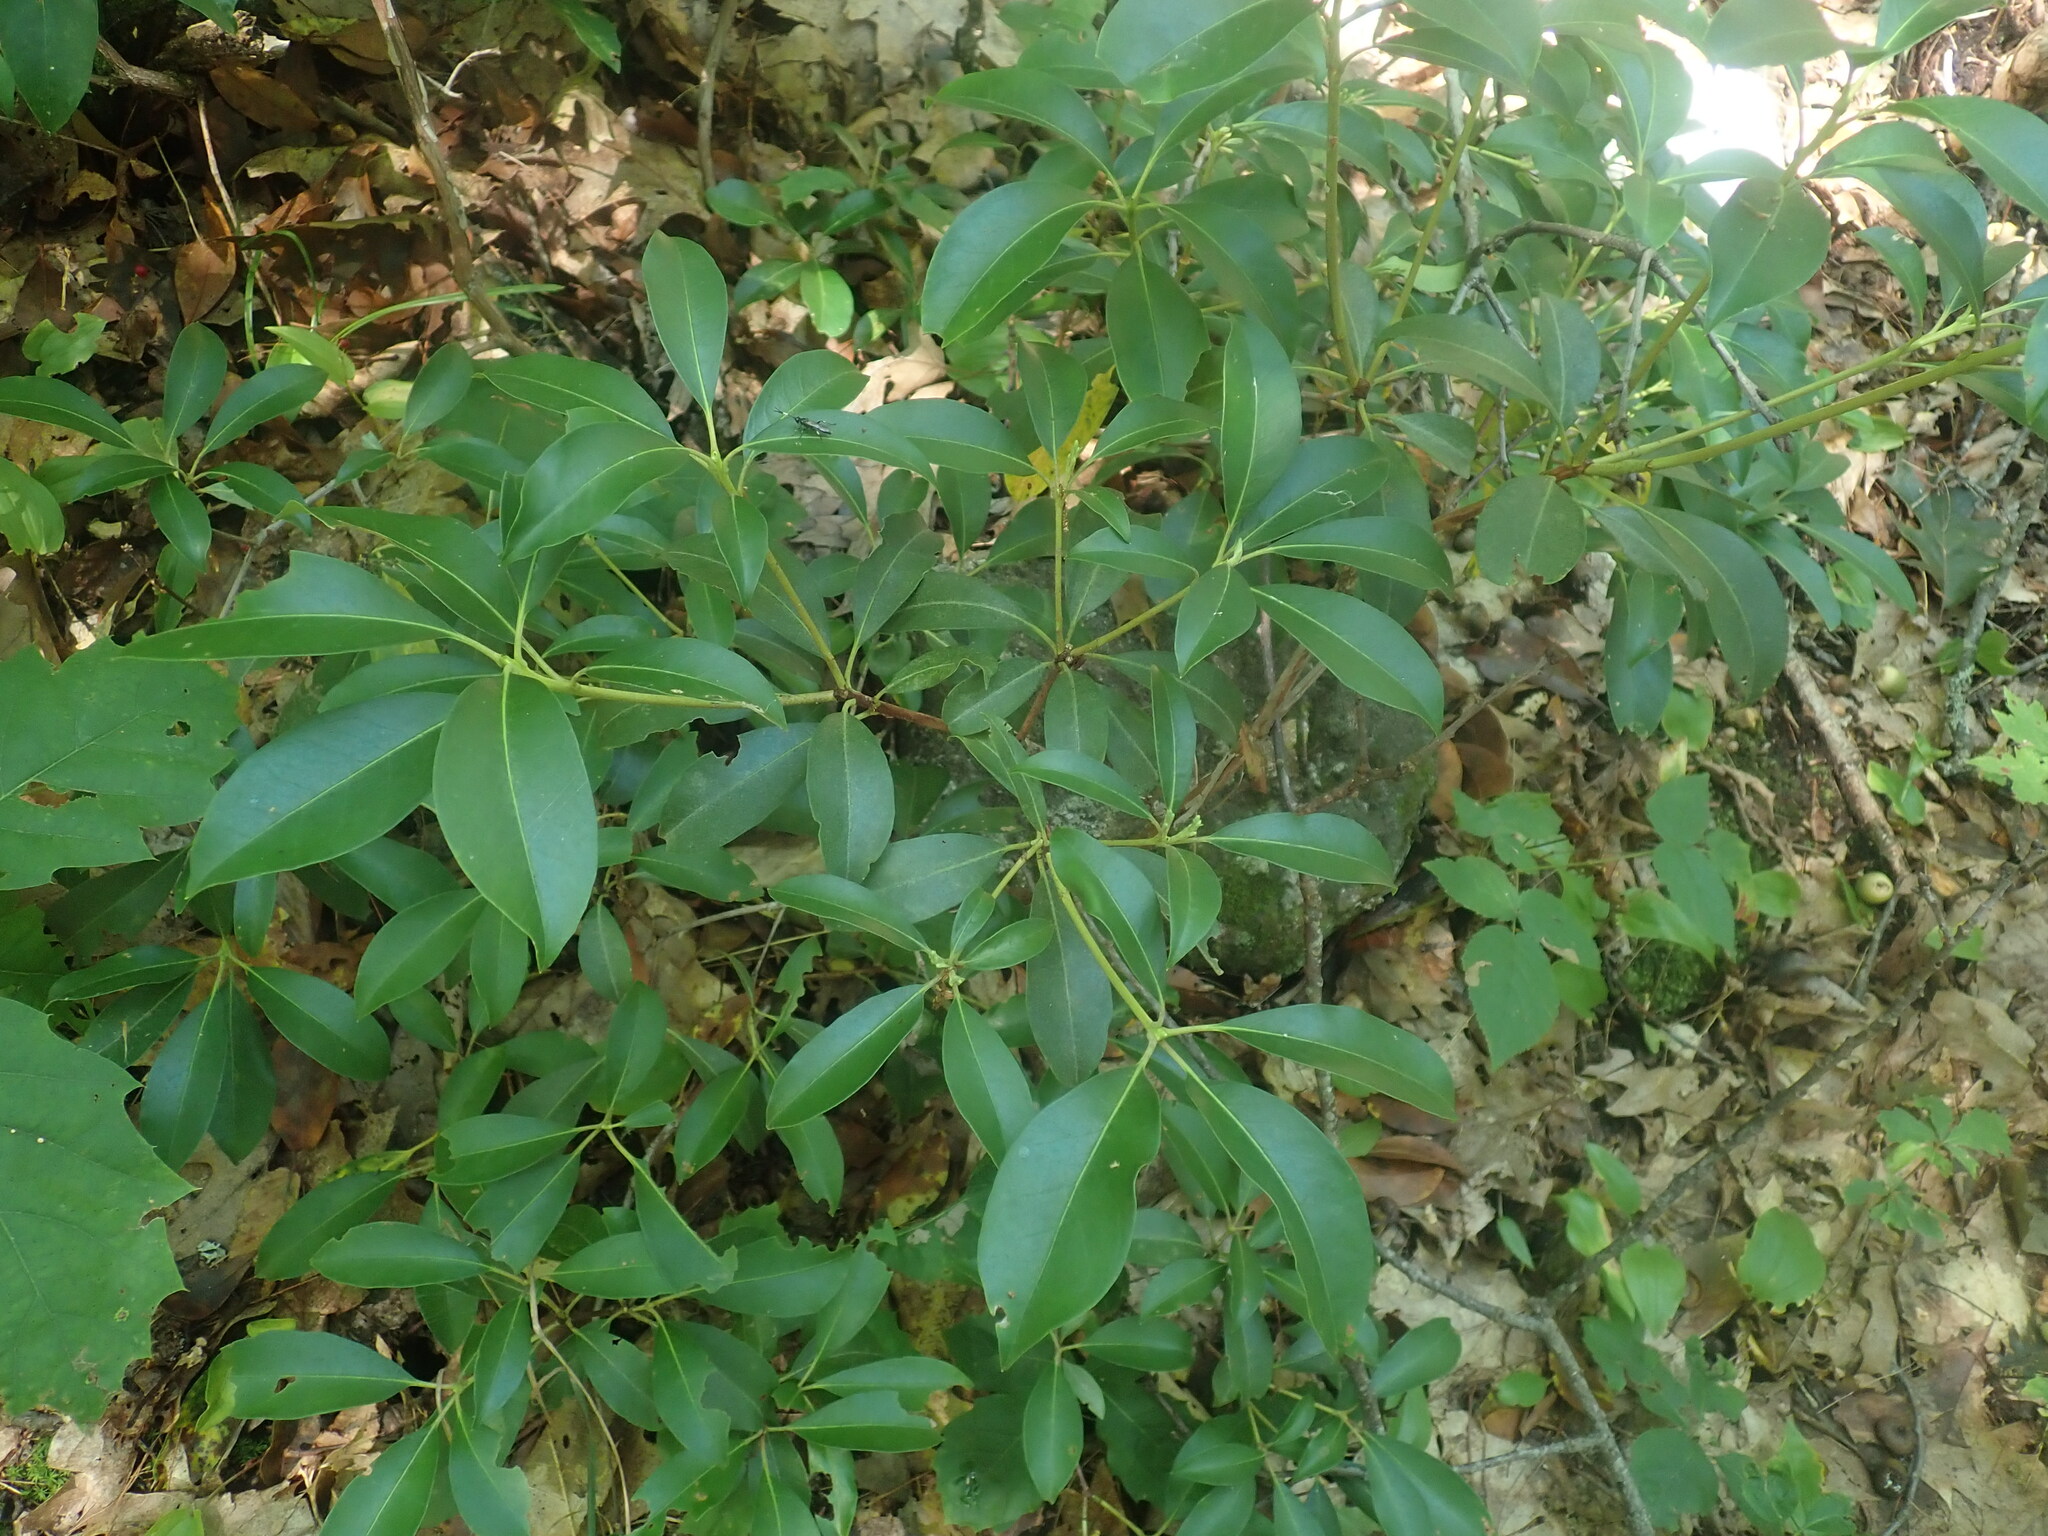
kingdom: Plantae
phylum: Tracheophyta
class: Magnoliopsida
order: Ericales
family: Ericaceae
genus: Kalmia
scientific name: Kalmia latifolia
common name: Mountain-laurel
